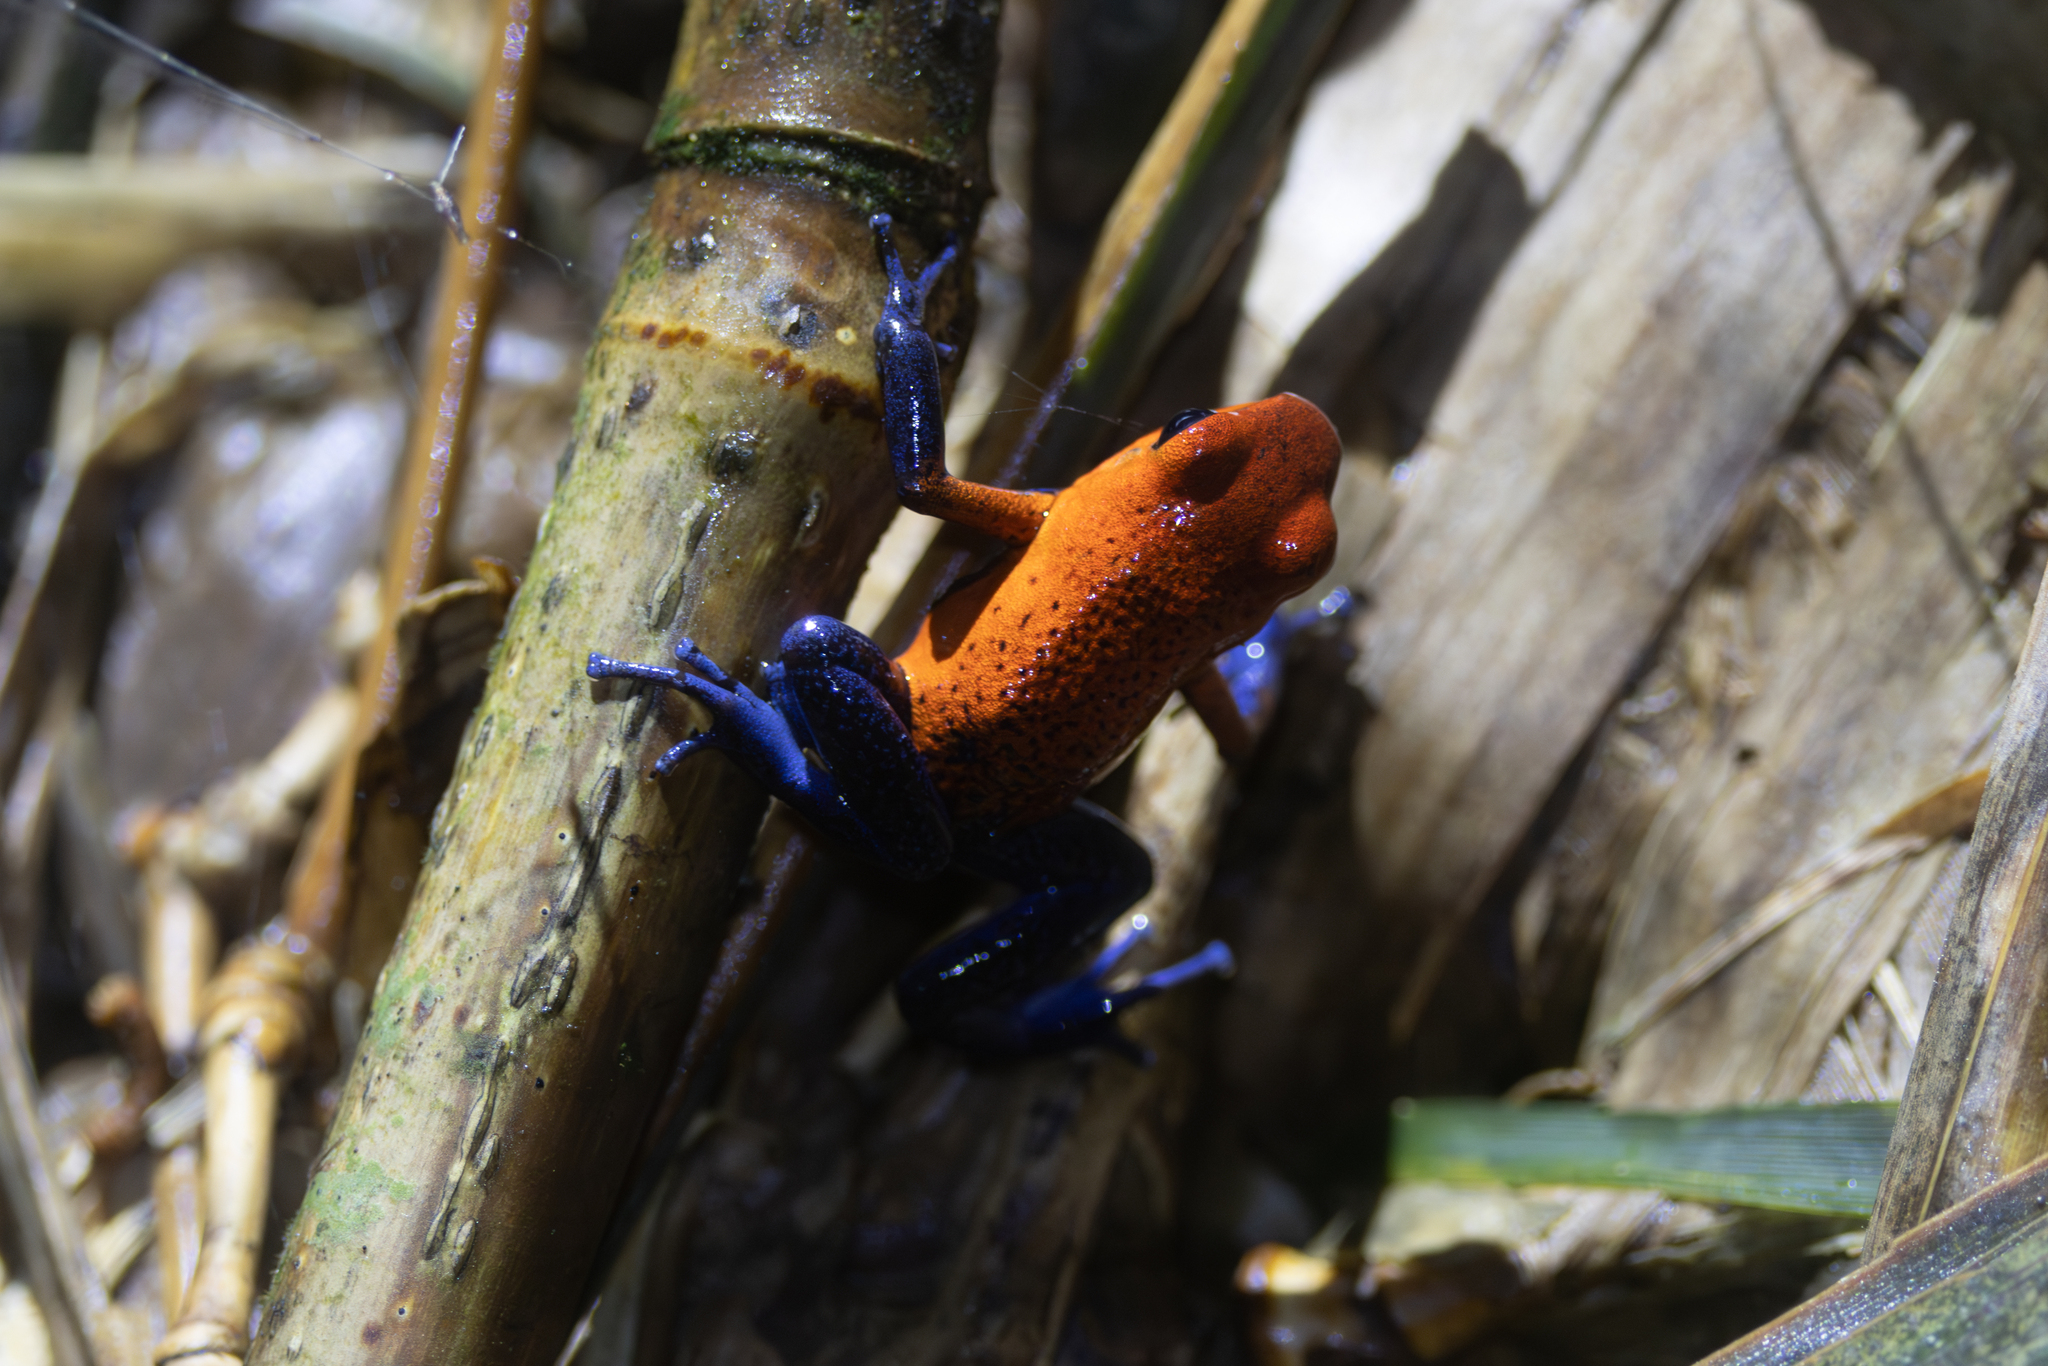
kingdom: Animalia
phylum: Chordata
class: Amphibia
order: Anura
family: Dendrobatidae
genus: Oophaga
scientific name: Oophaga pumilio
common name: Flaming poison frog
